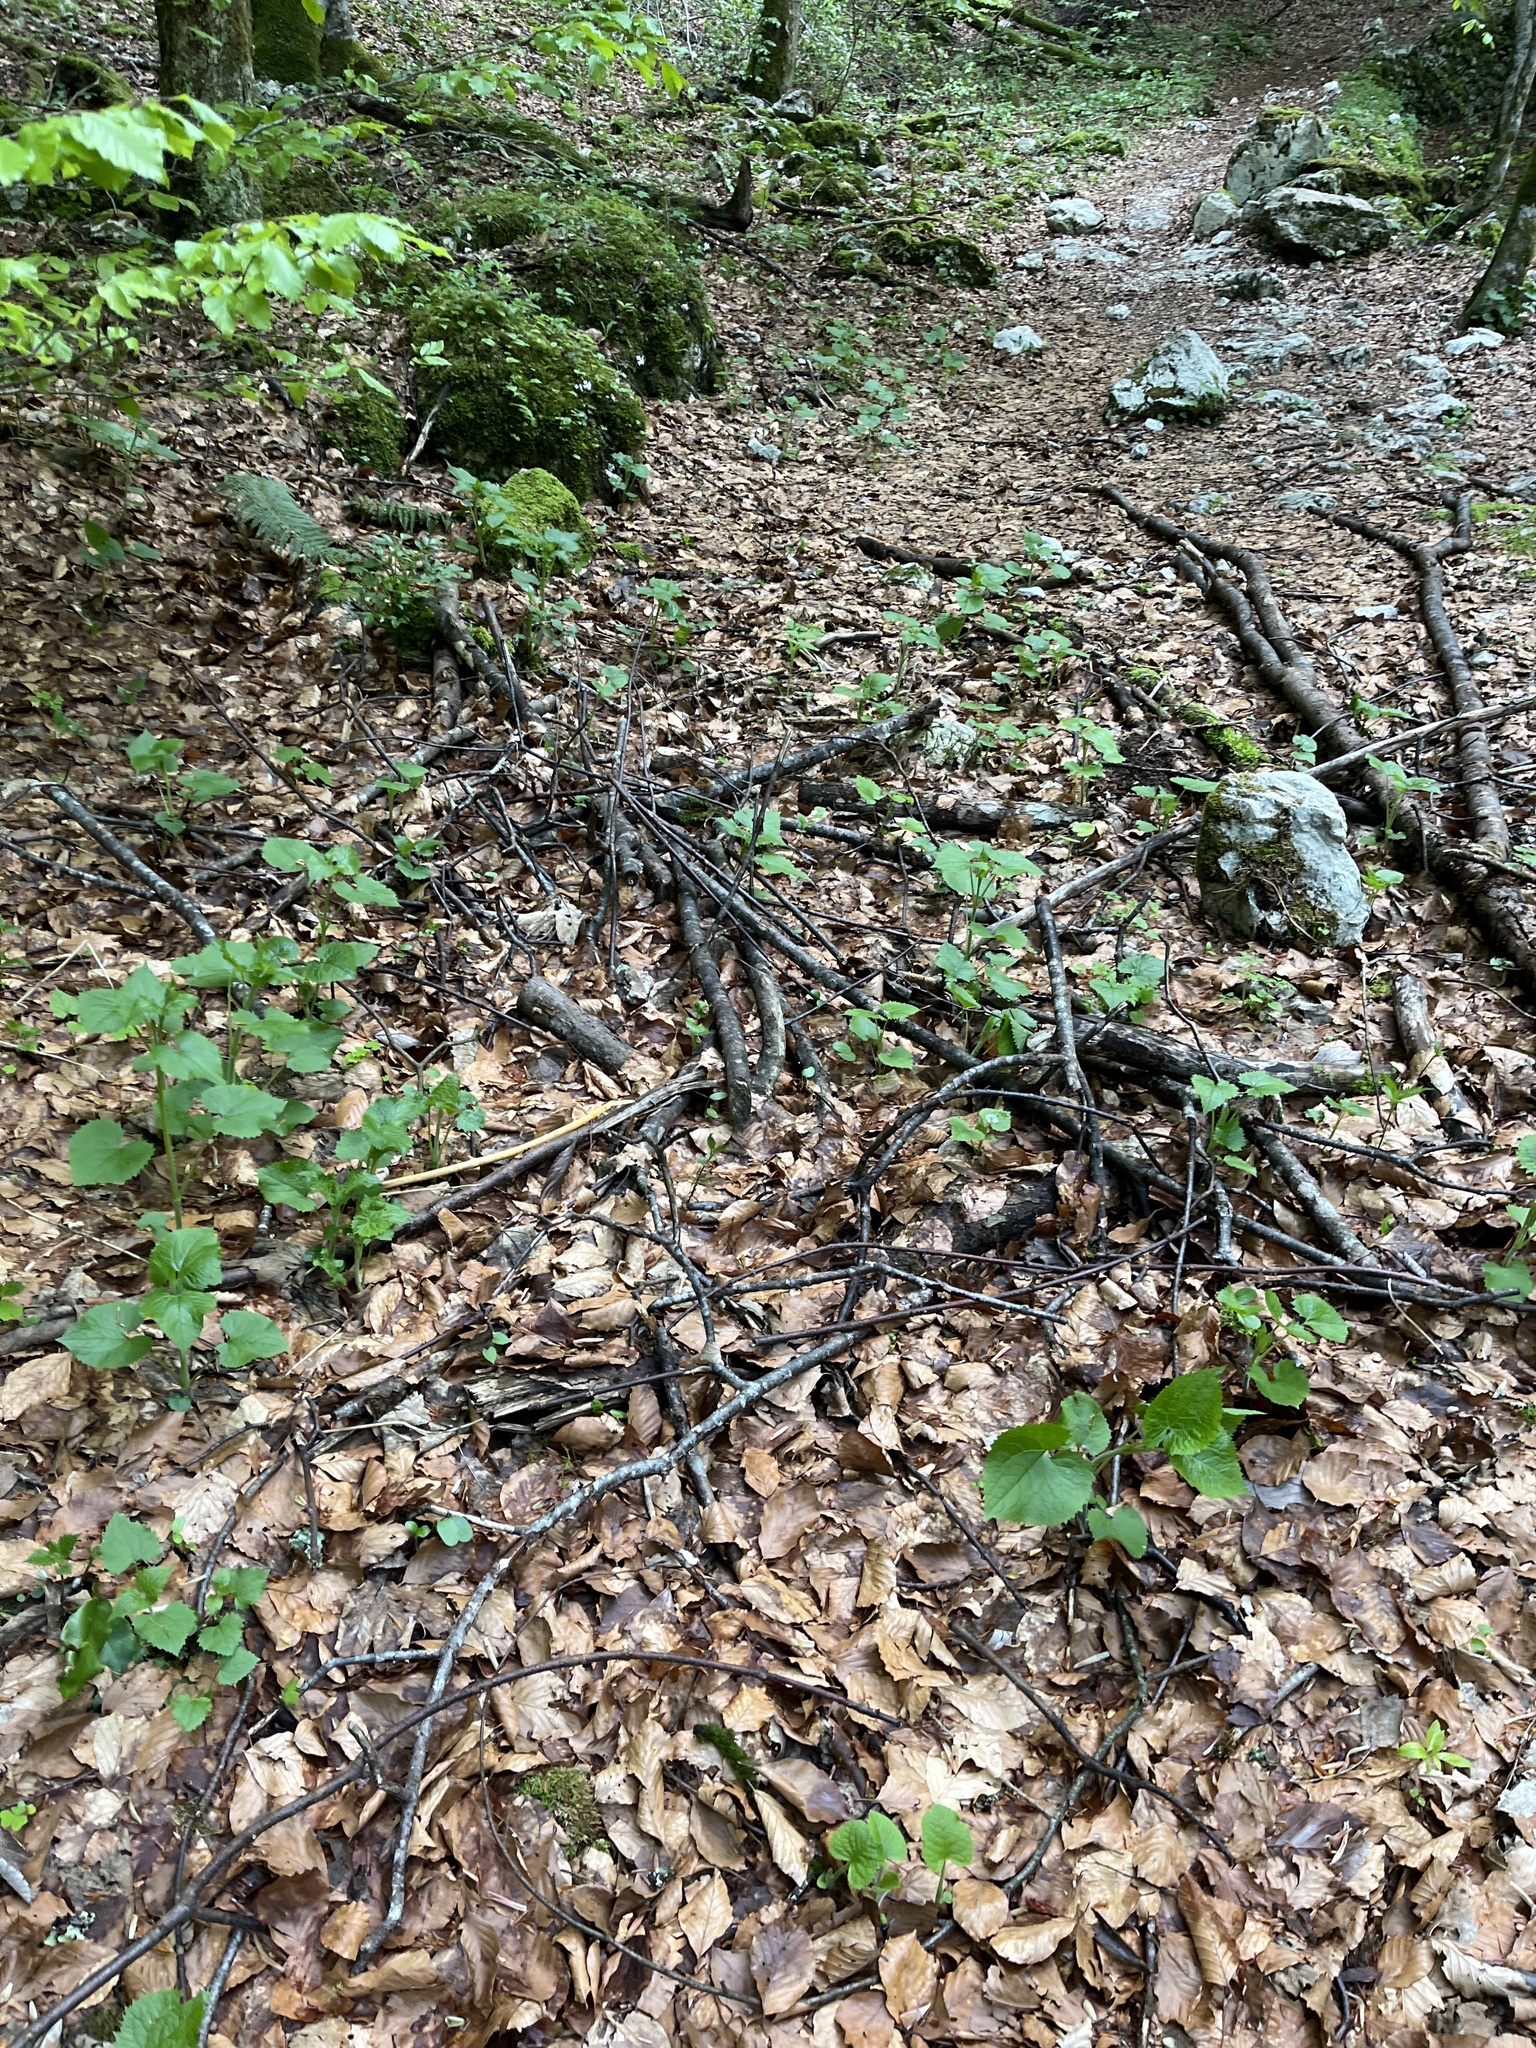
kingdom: Plantae
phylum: Tracheophyta
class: Magnoliopsida
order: Brassicales
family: Brassicaceae
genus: Lunaria
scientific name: Lunaria rediviva
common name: Perennial honesty
